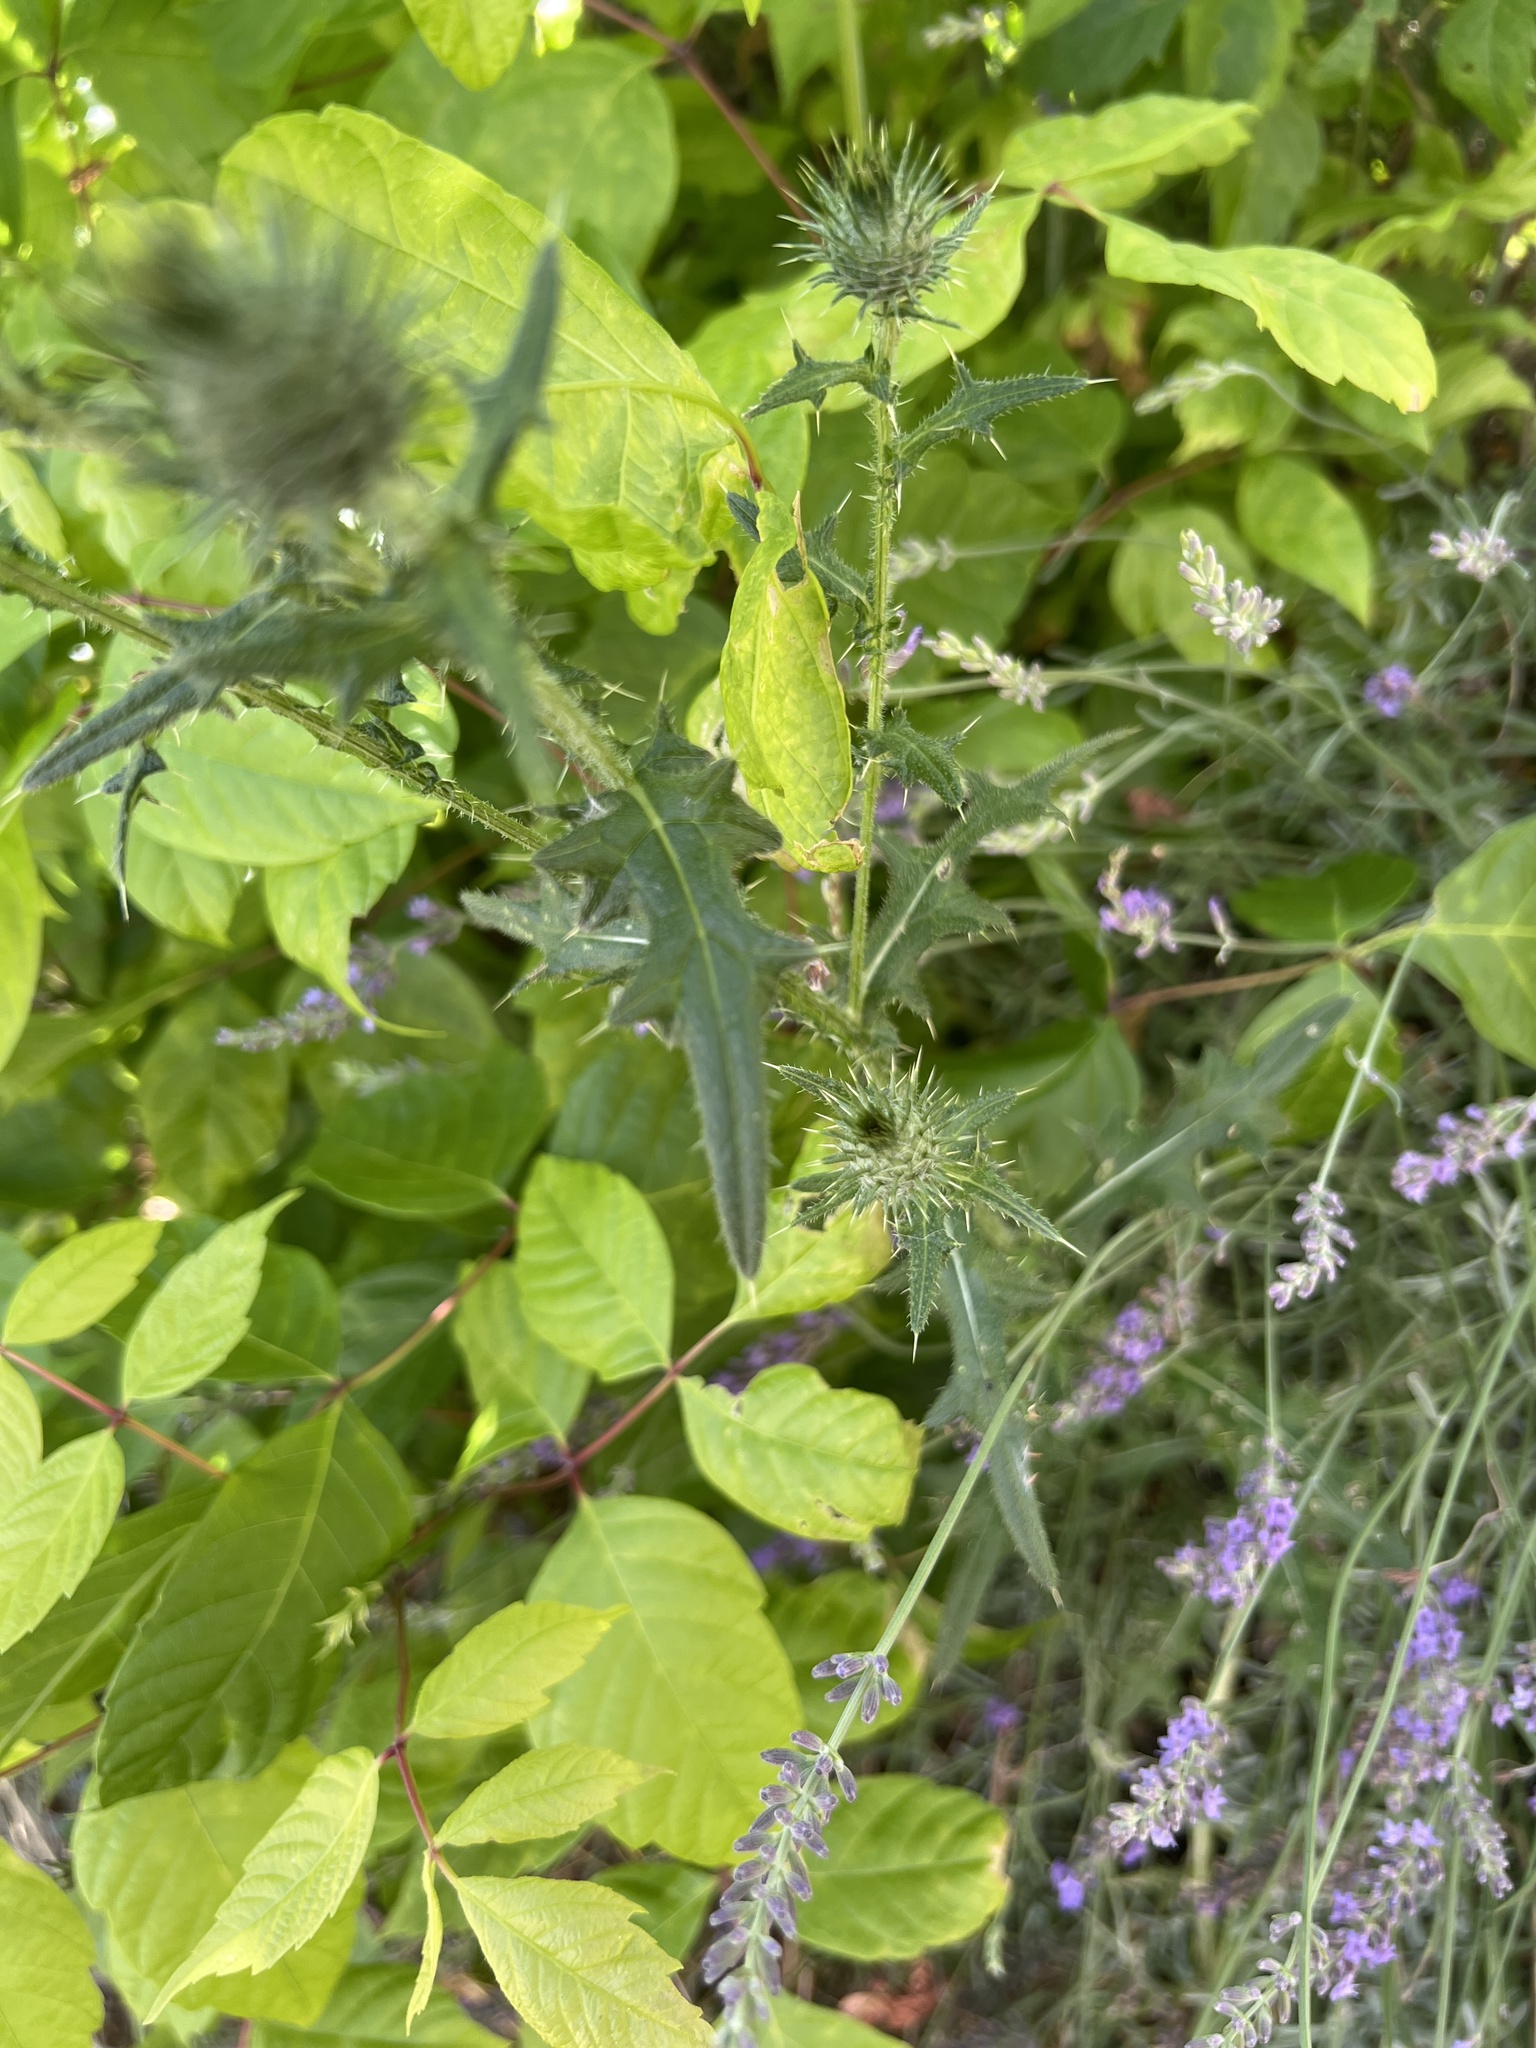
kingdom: Plantae
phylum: Tracheophyta
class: Magnoliopsida
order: Asterales
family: Asteraceae
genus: Cirsium
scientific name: Cirsium vulgare
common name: Bull thistle
